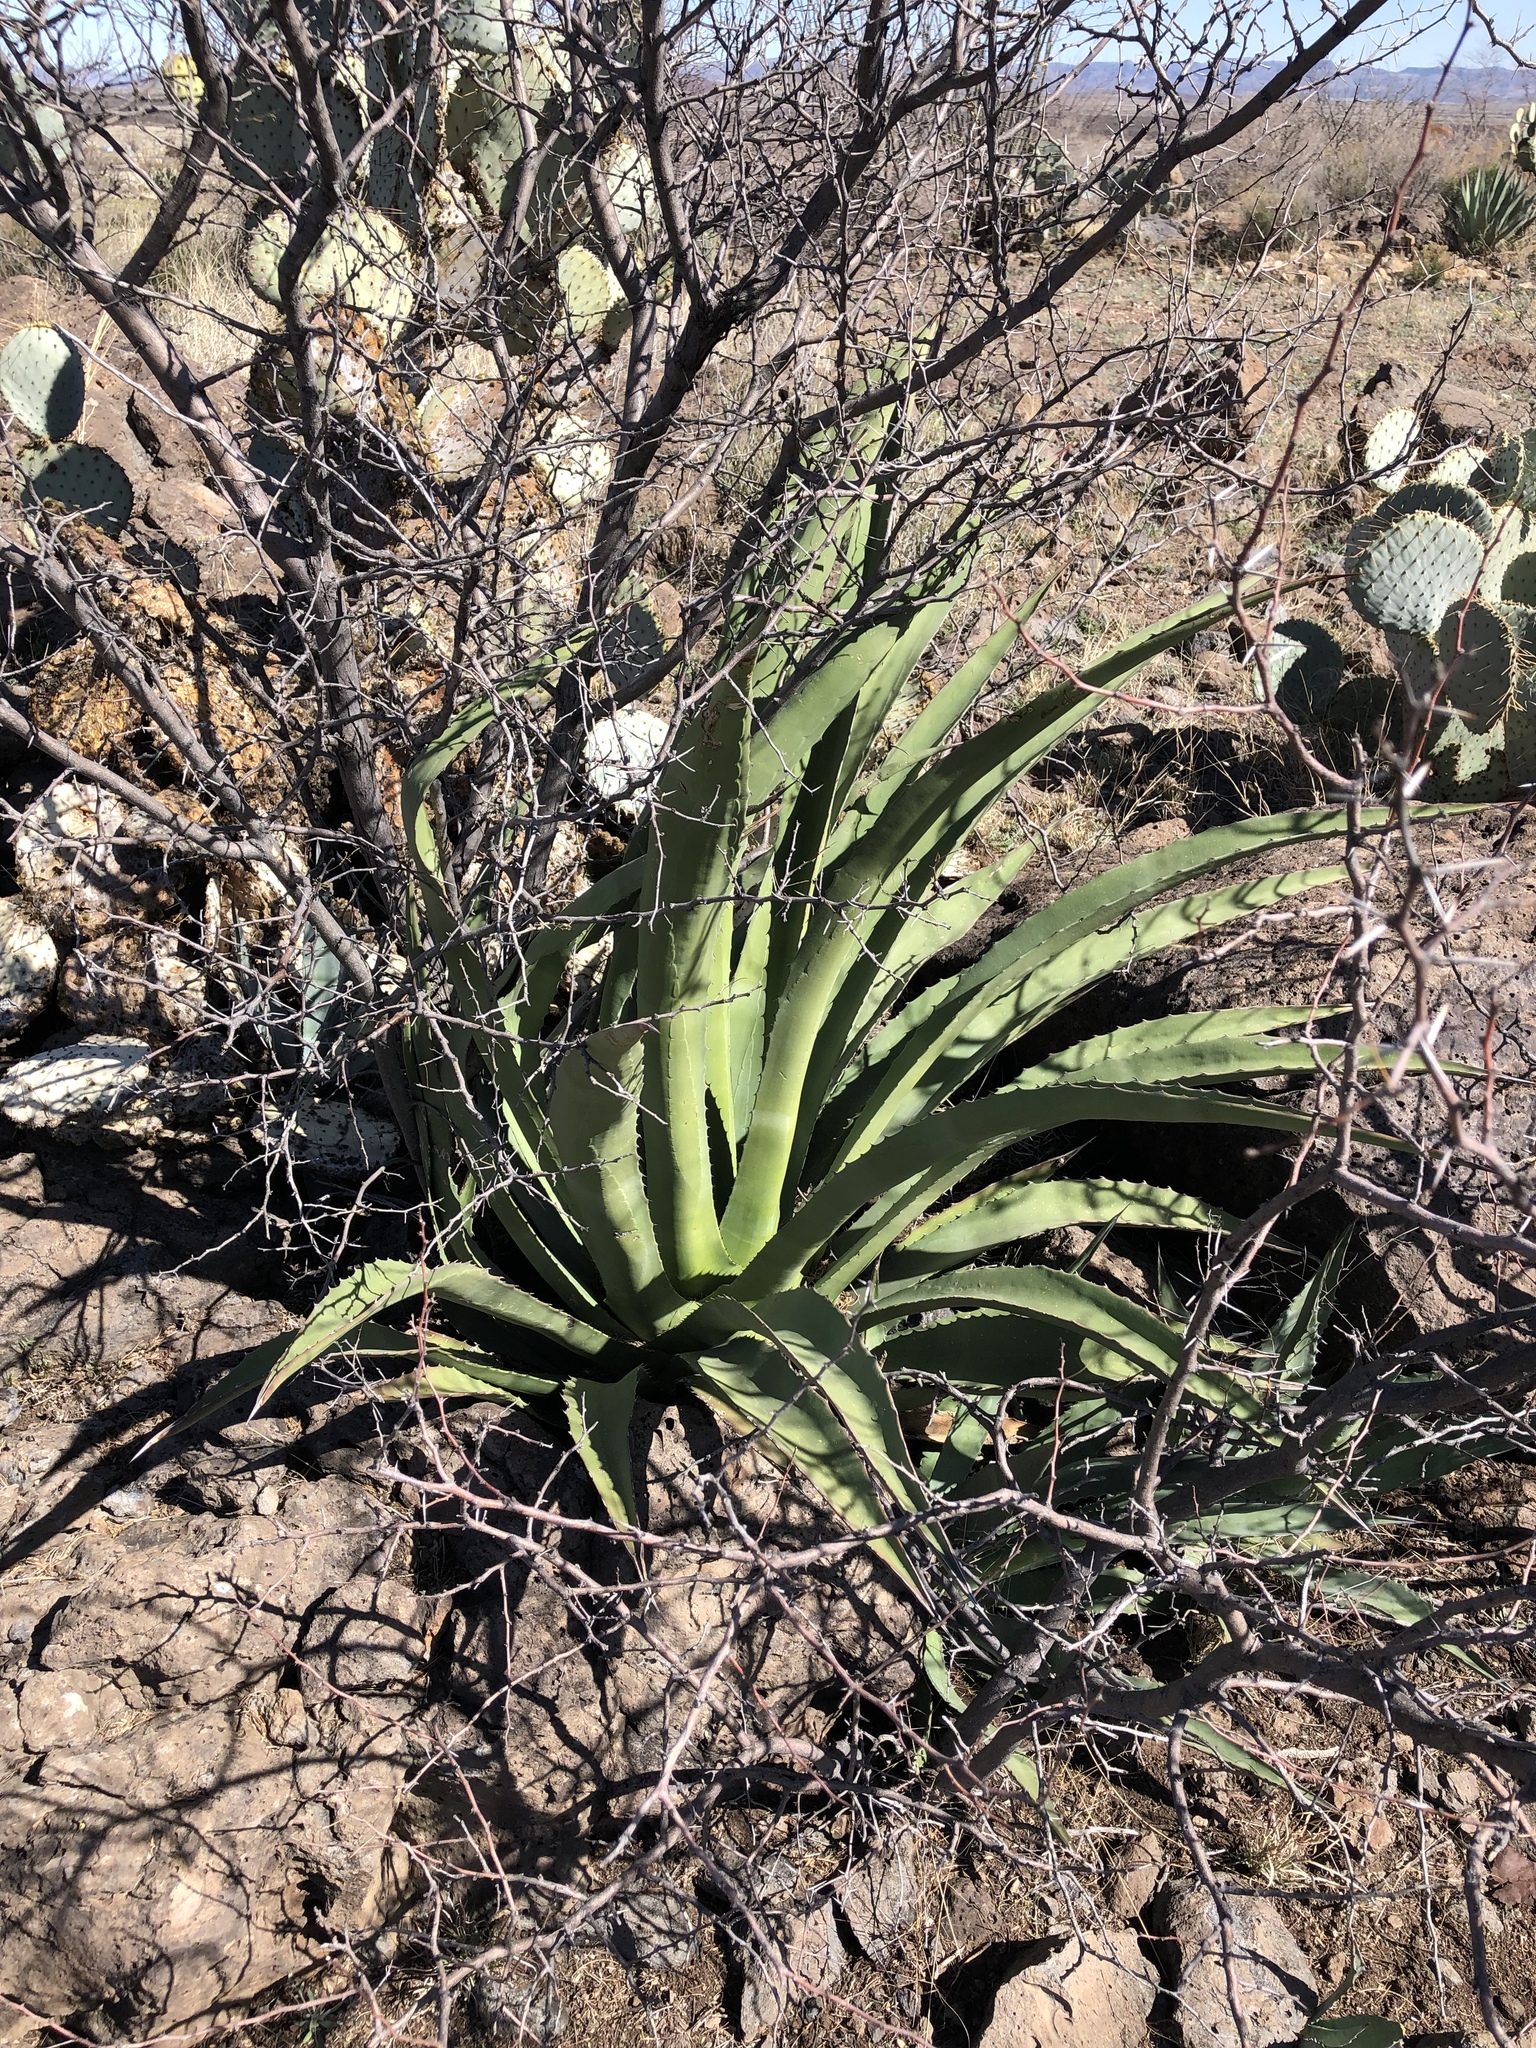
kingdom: Plantae
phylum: Tracheophyta
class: Liliopsida
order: Asparagales
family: Asparagaceae
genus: Agave
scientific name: Agave palmeri
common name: Palmer agave
